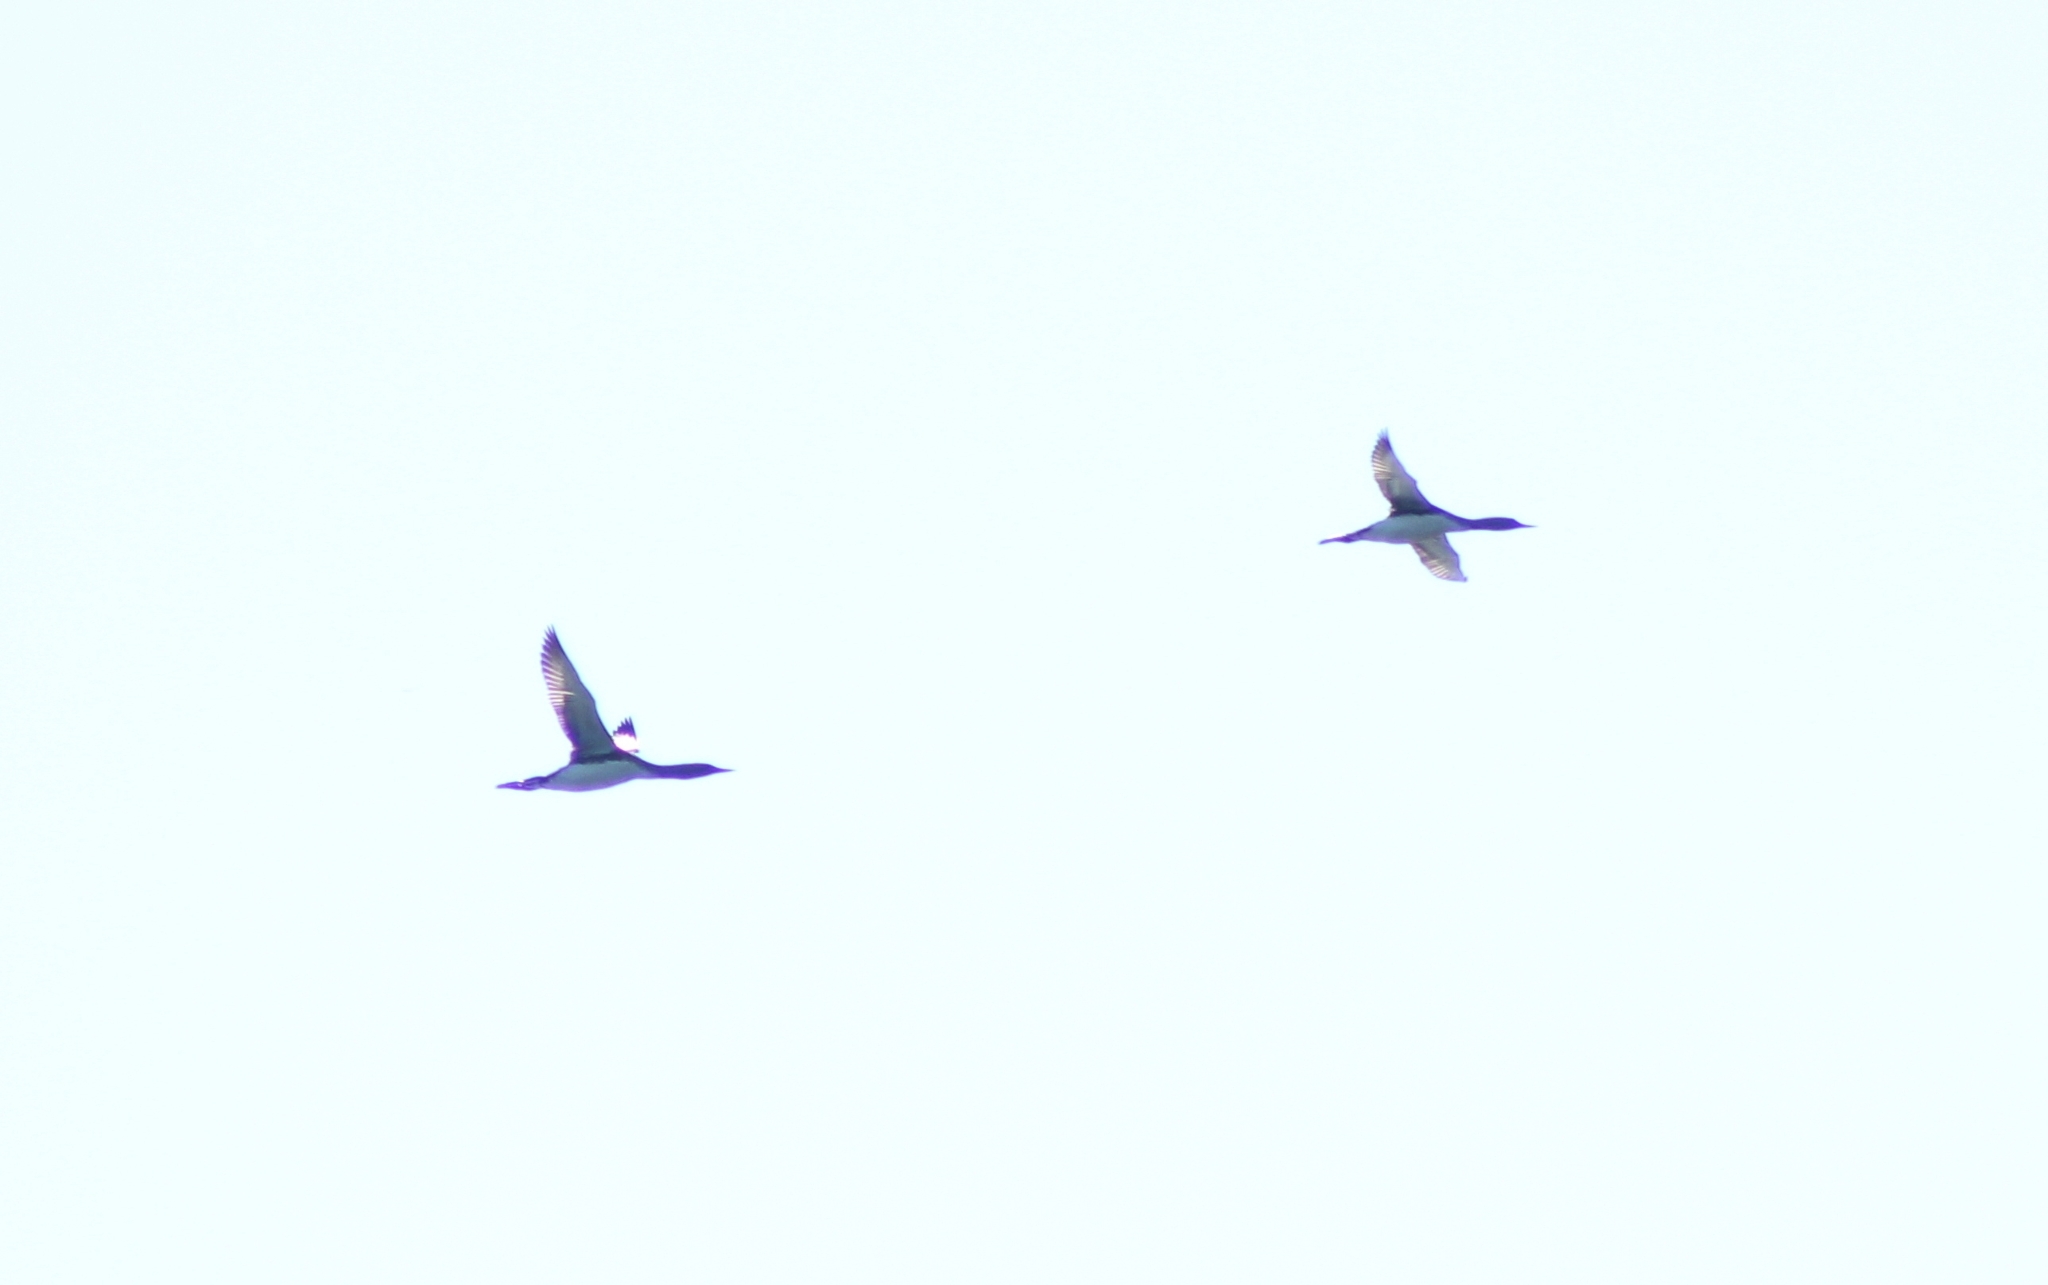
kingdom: Animalia
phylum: Chordata
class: Aves
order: Gaviiformes
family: Gaviidae
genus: Gavia
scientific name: Gavia stellata
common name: Red-throated loon
